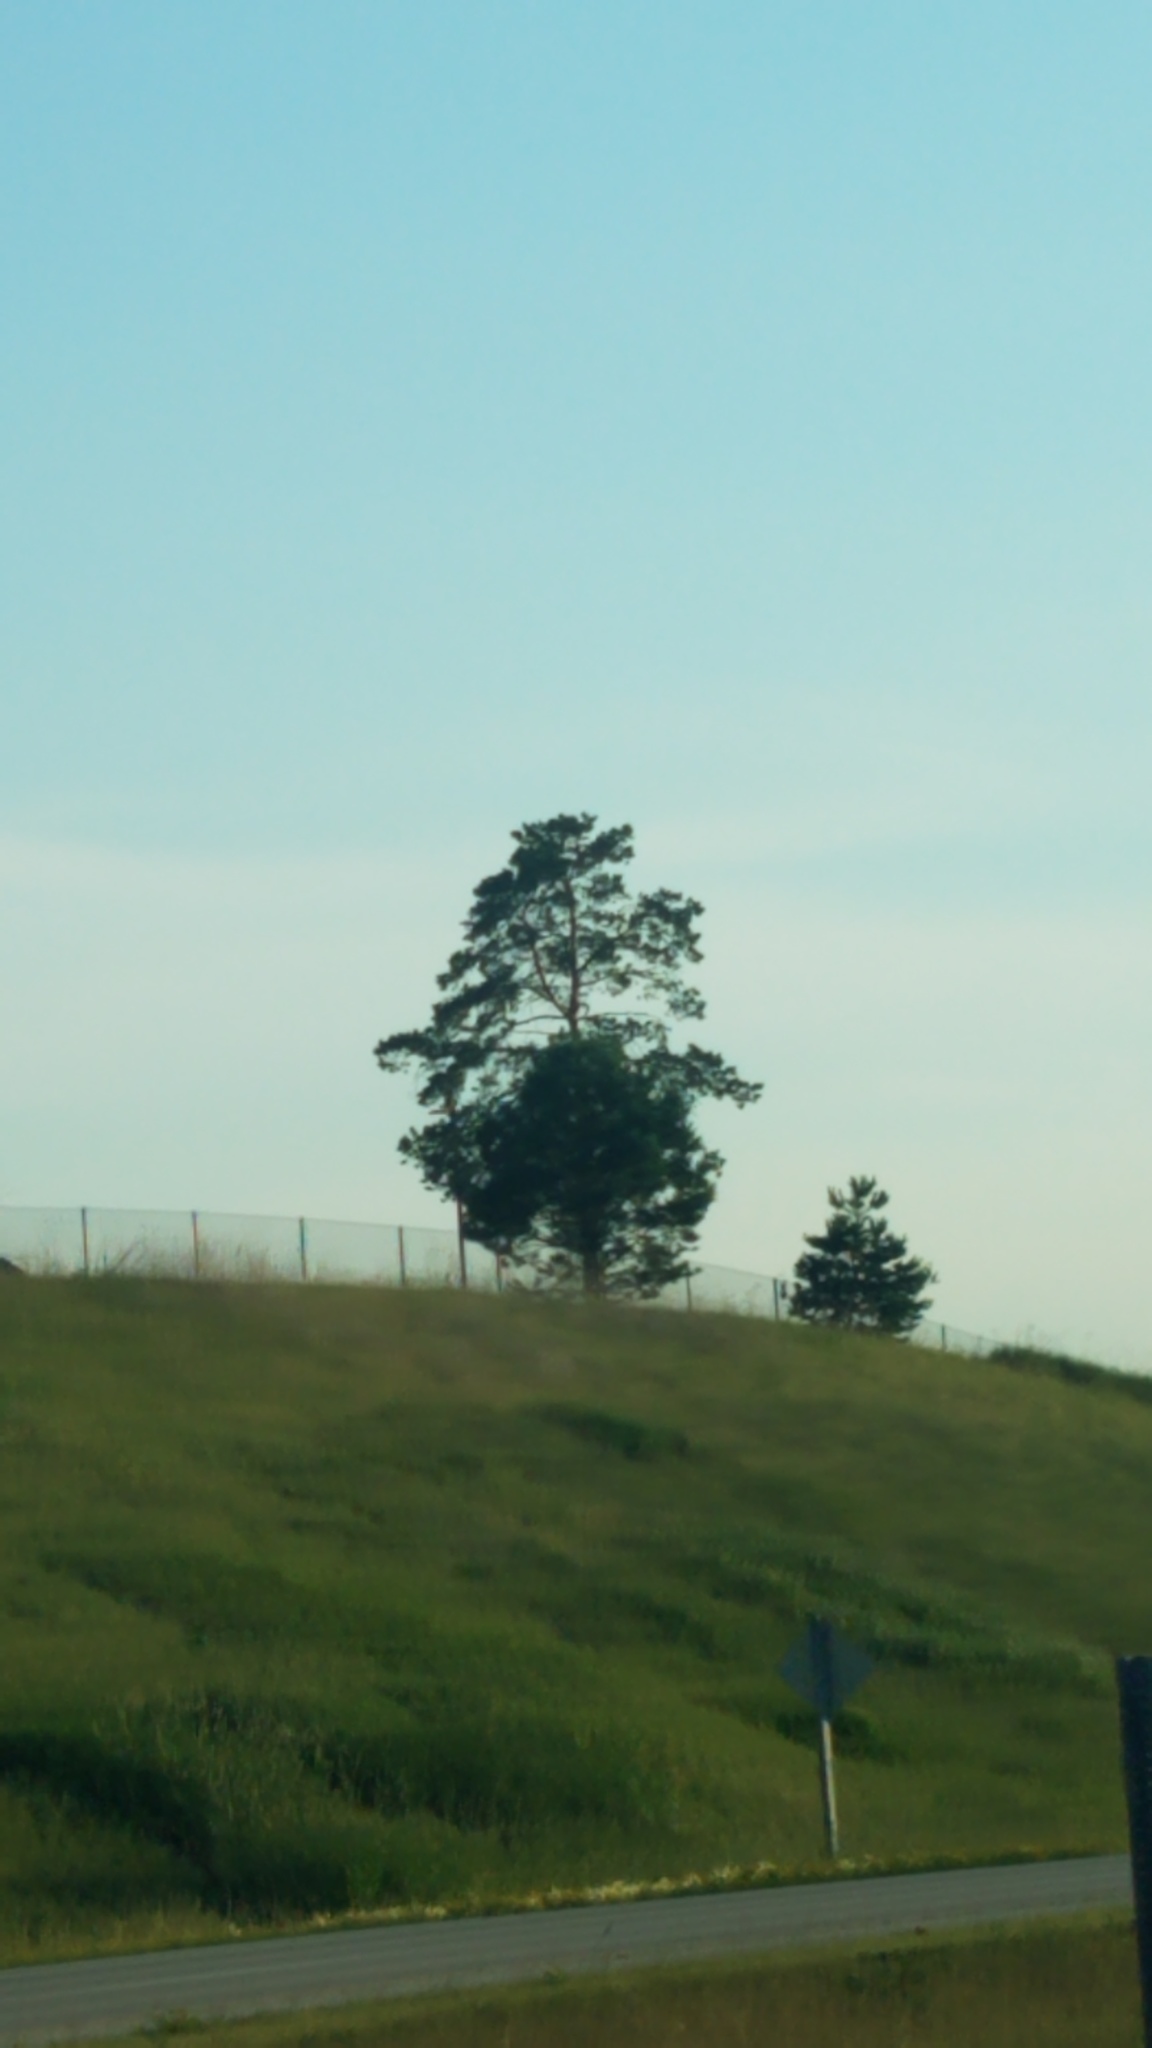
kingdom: Plantae
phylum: Tracheophyta
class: Pinopsida
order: Pinales
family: Pinaceae
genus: Pinus
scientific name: Pinus sylvestris
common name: Scots pine
